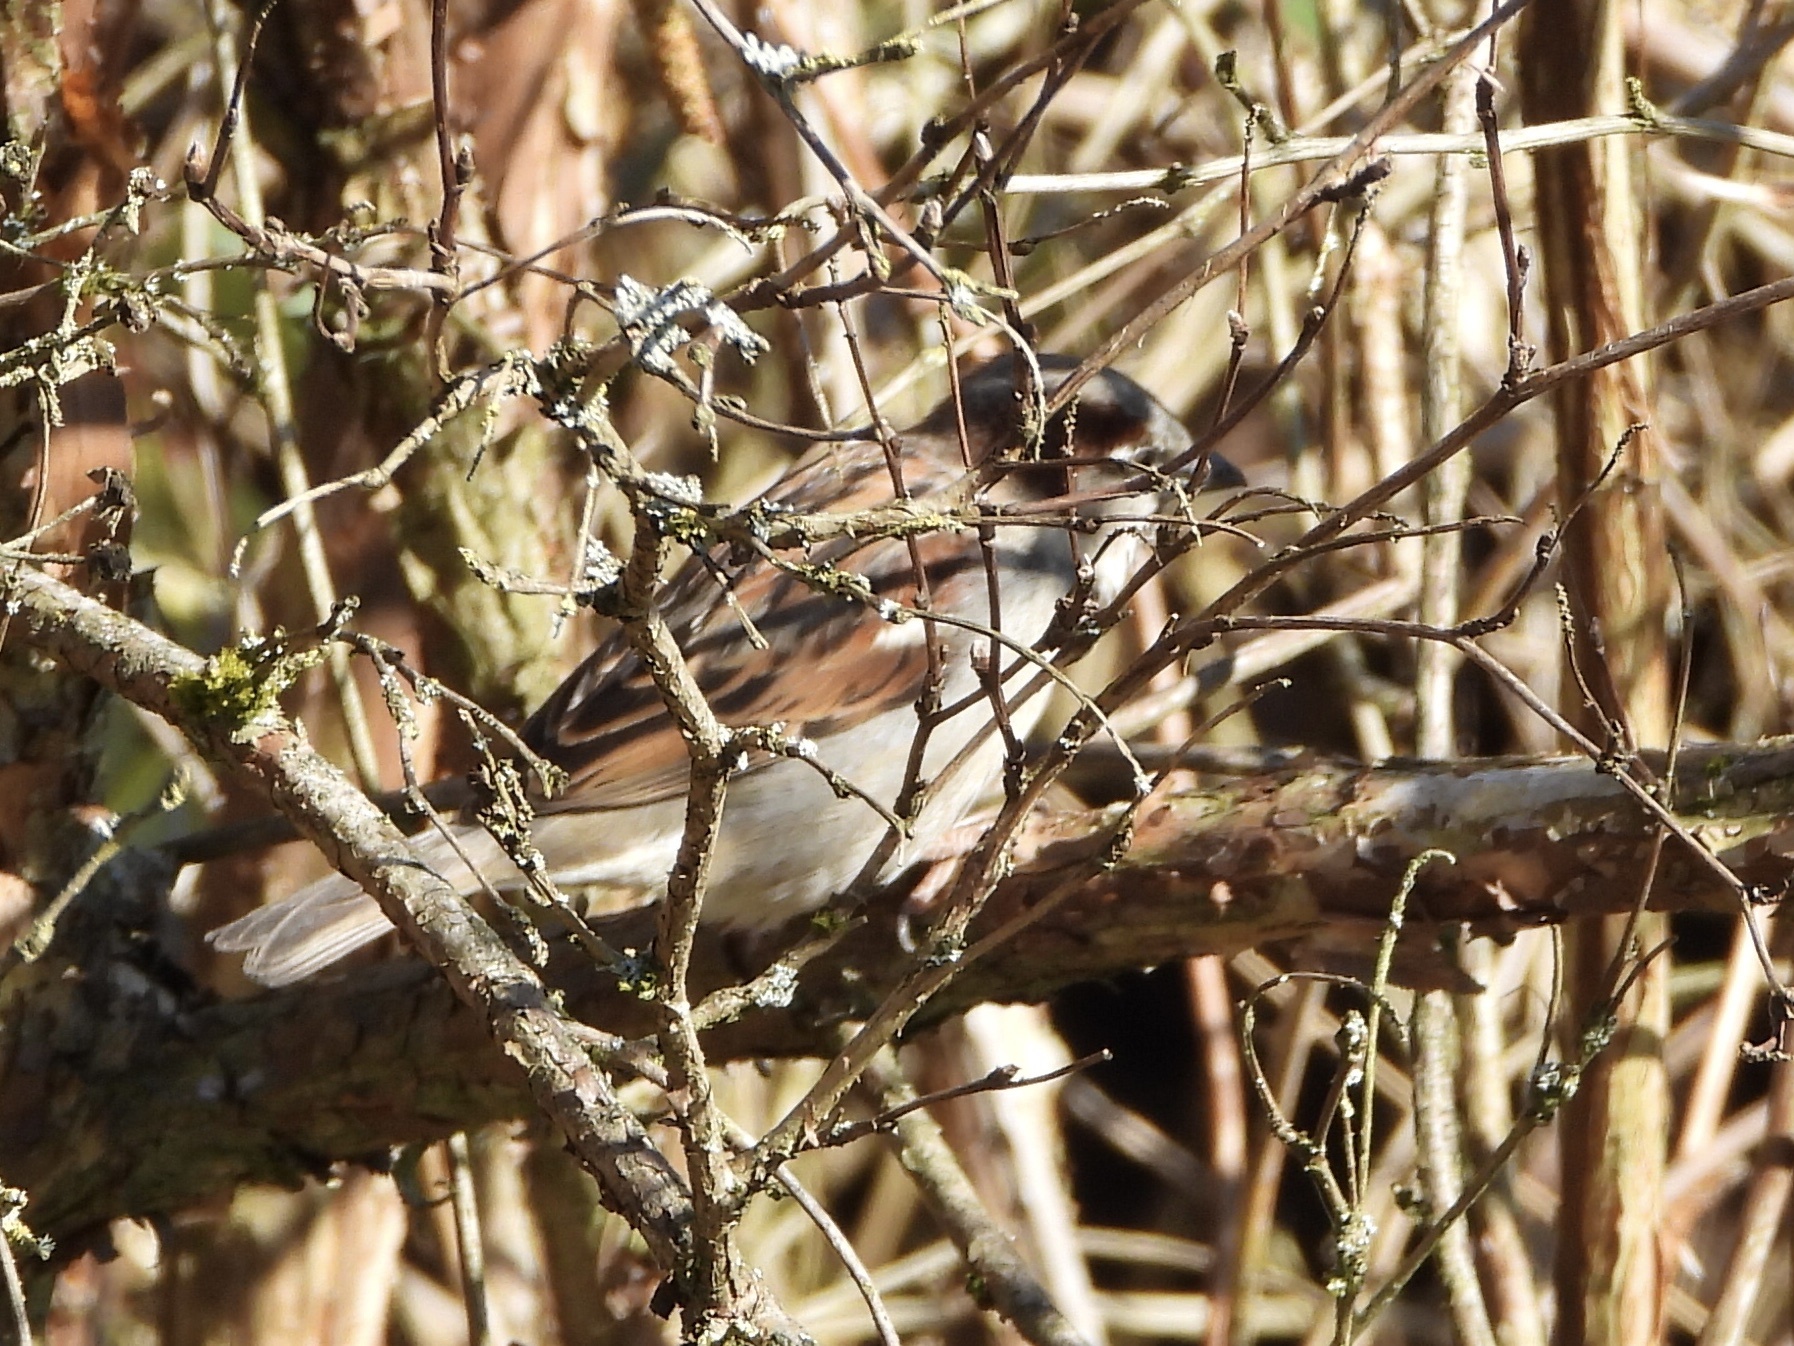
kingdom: Animalia
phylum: Chordata
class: Aves
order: Passeriformes
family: Passeridae
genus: Passer
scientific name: Passer domesticus
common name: House sparrow
